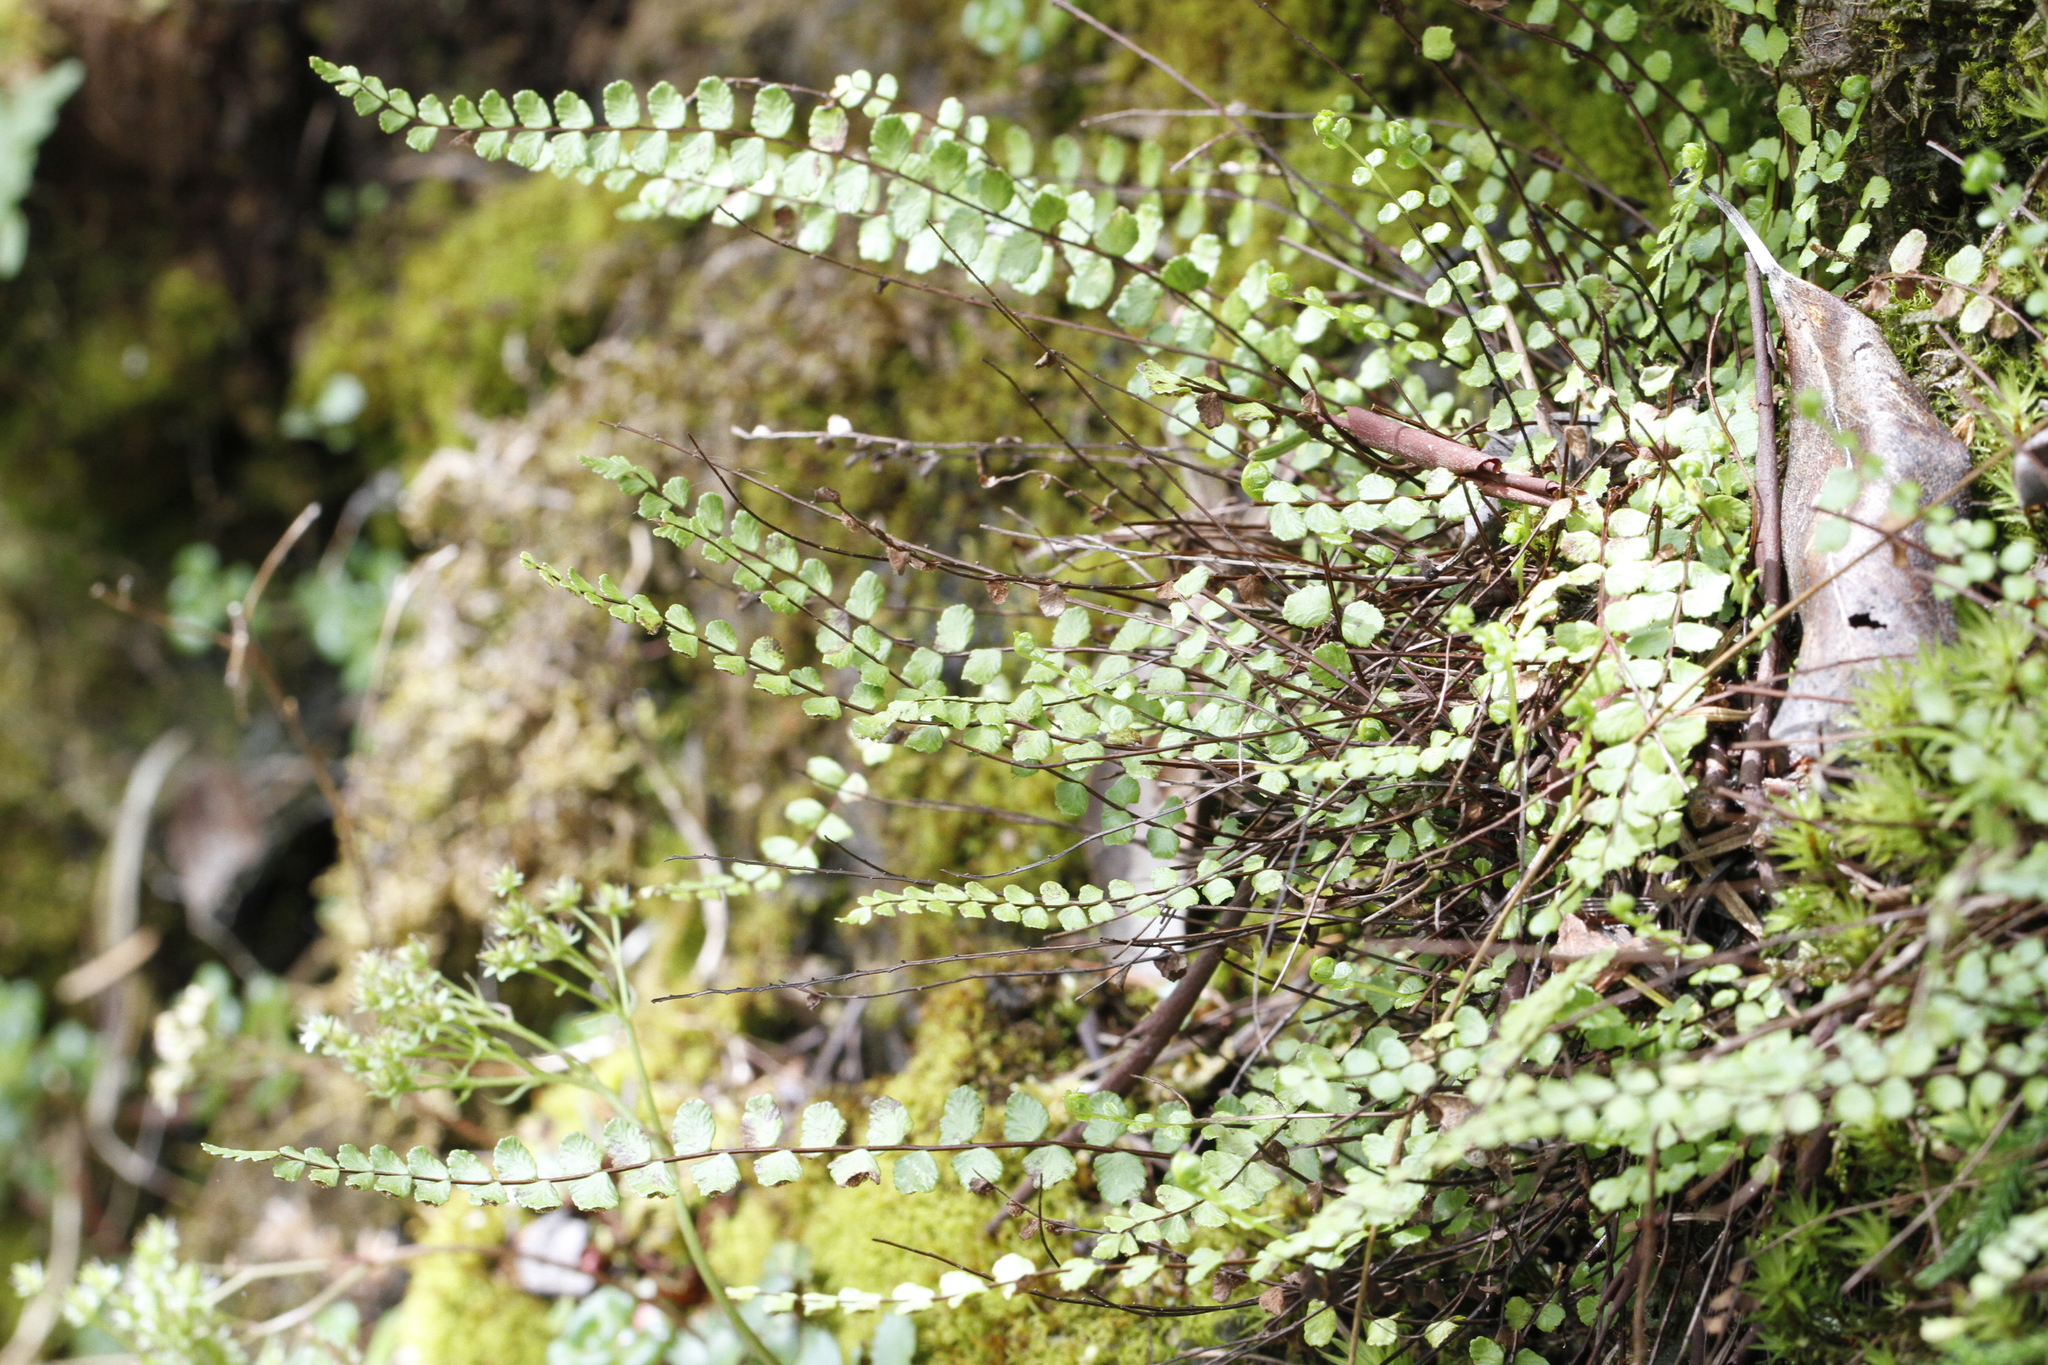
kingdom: Plantae
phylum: Tracheophyta
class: Polypodiopsida
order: Polypodiales
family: Aspleniaceae
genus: Asplenium
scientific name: Asplenium trichomanes
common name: Maidenhair spleenwort
